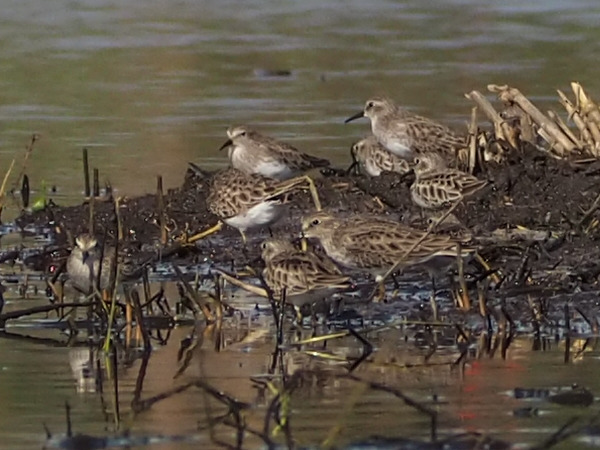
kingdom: Animalia
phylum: Chordata
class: Aves
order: Charadriiformes
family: Scolopacidae
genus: Calidris
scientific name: Calidris minutilla
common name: Least sandpiper
